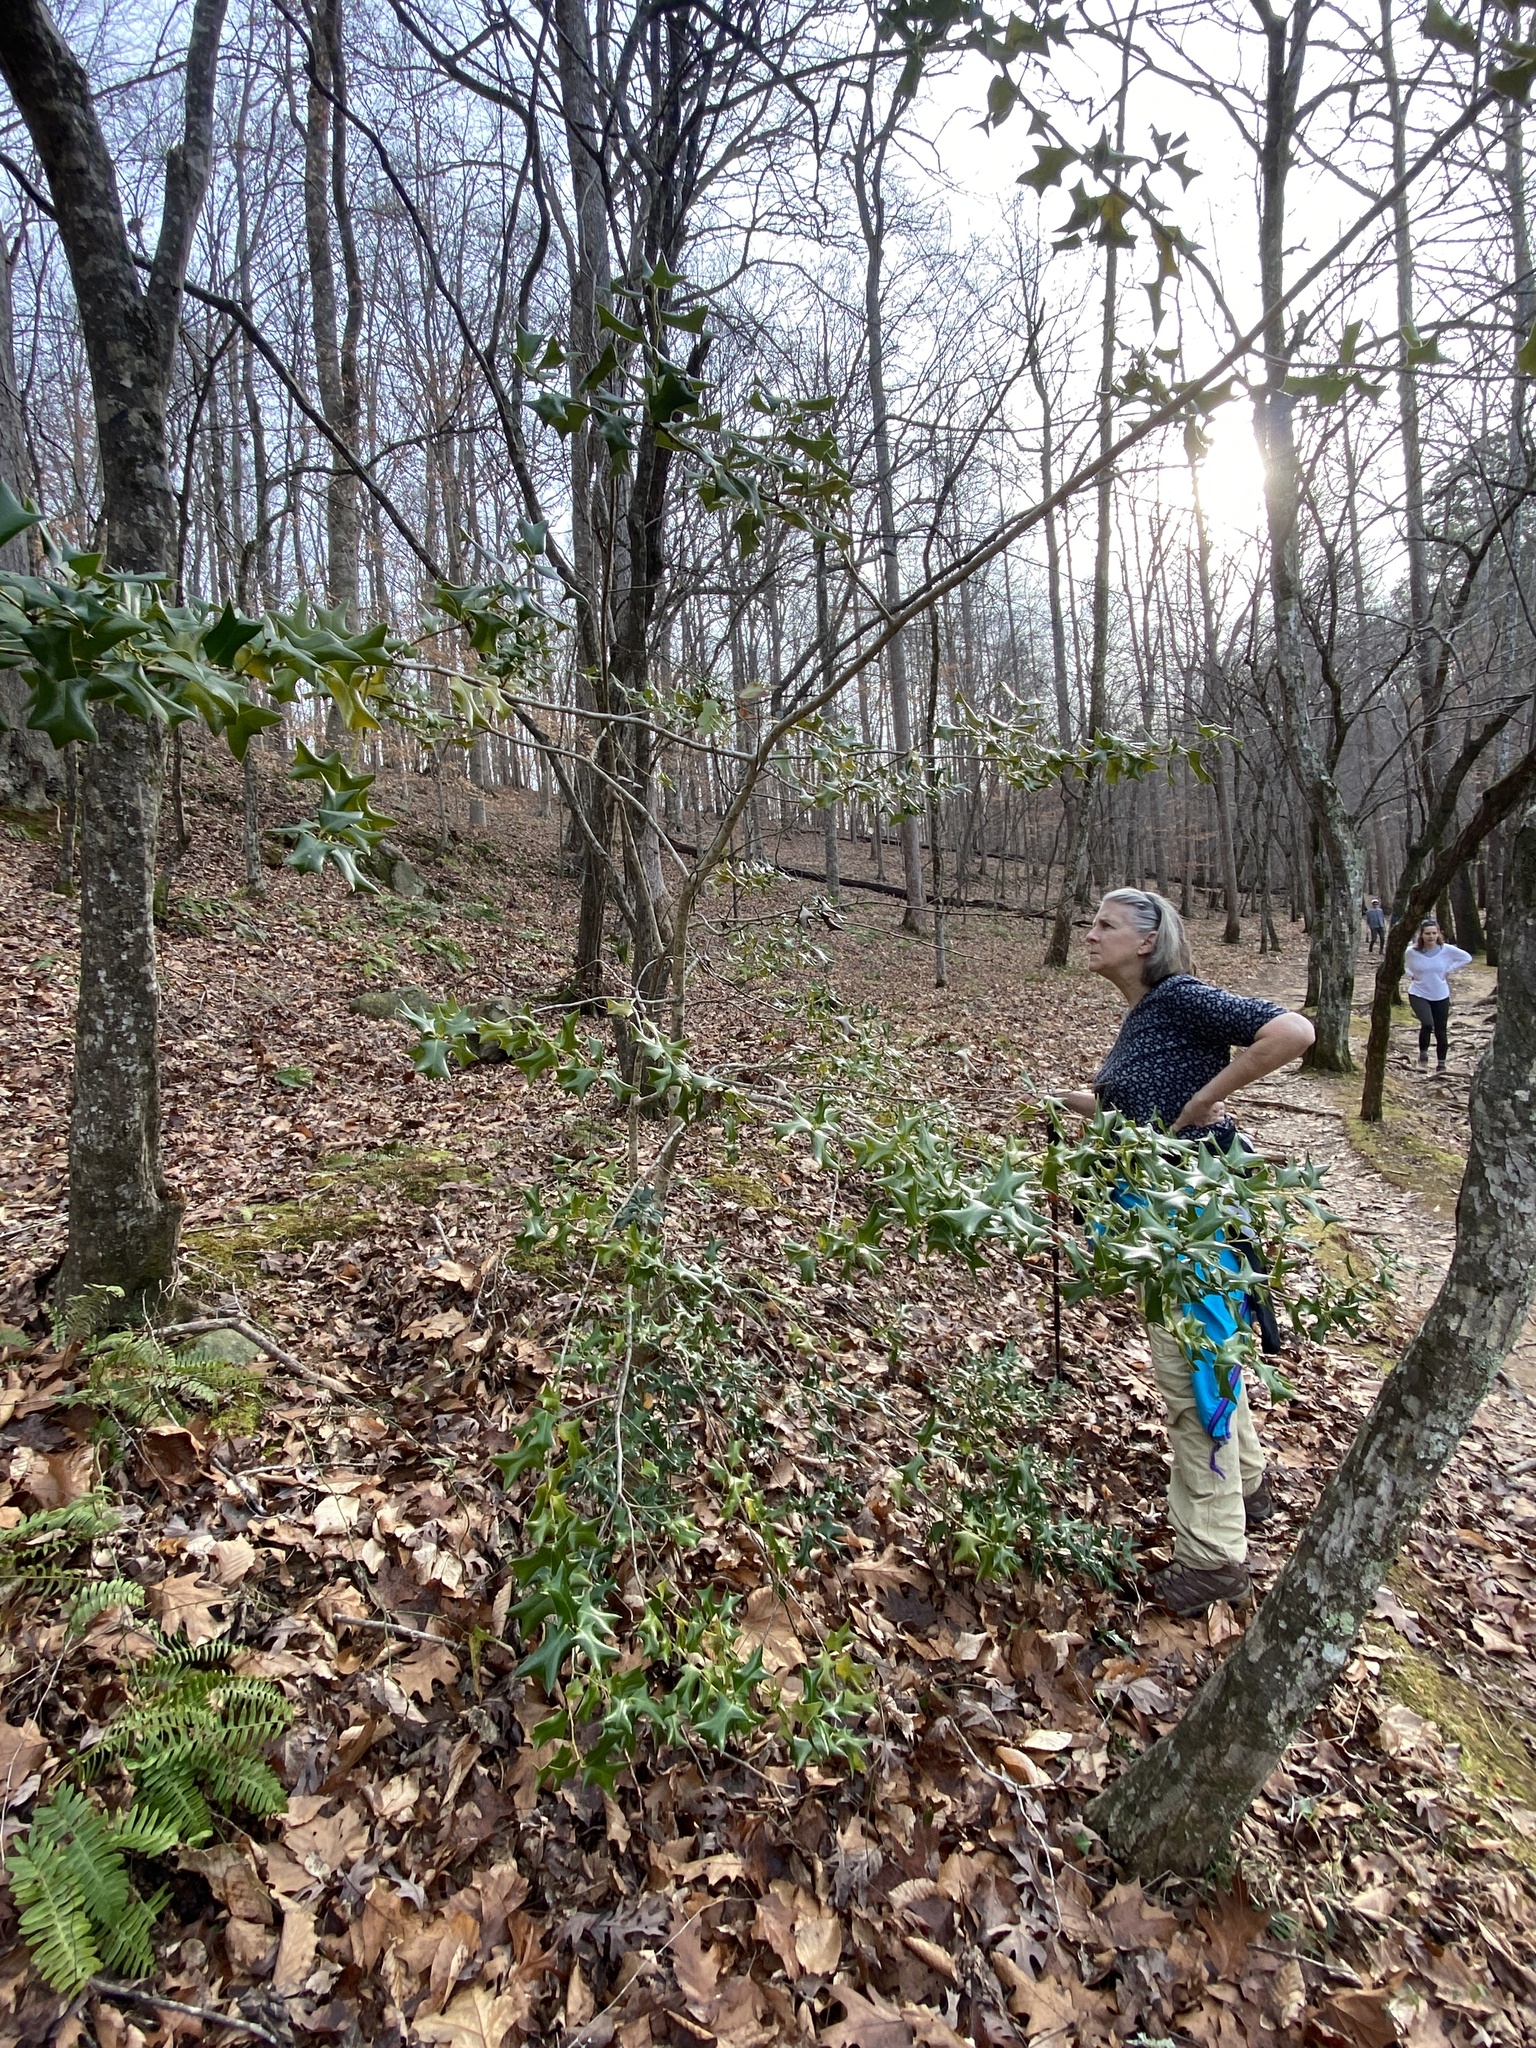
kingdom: Plantae
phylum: Tracheophyta
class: Magnoliopsida
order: Aquifoliales
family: Aquifoliaceae
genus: Ilex
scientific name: Ilex cornuta
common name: Chinese holly
